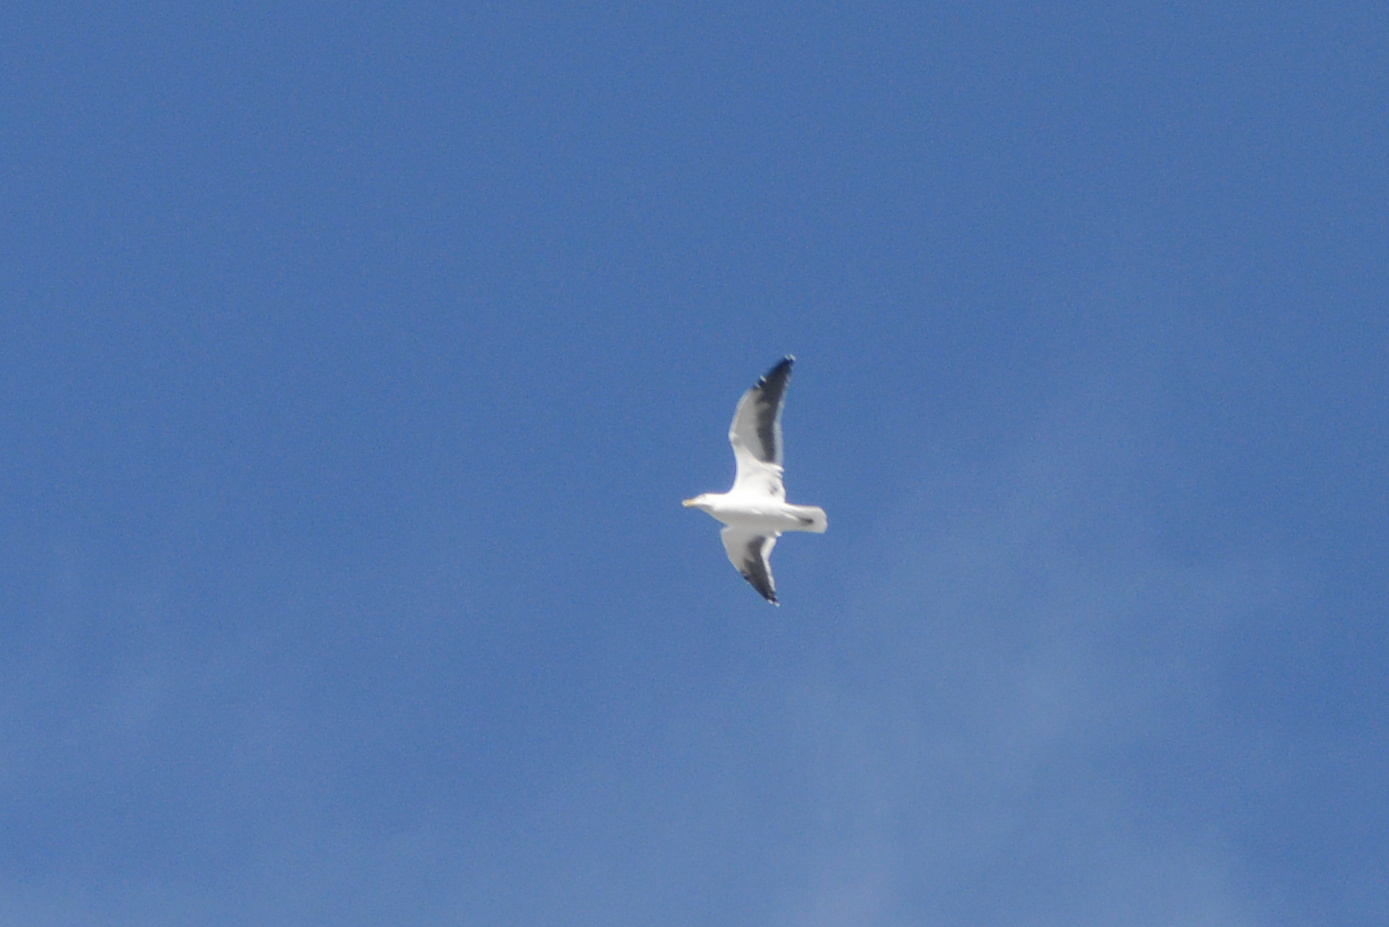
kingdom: Animalia
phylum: Chordata
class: Aves
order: Charadriiformes
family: Laridae
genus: Larus
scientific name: Larus dominicanus
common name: Kelp gull
